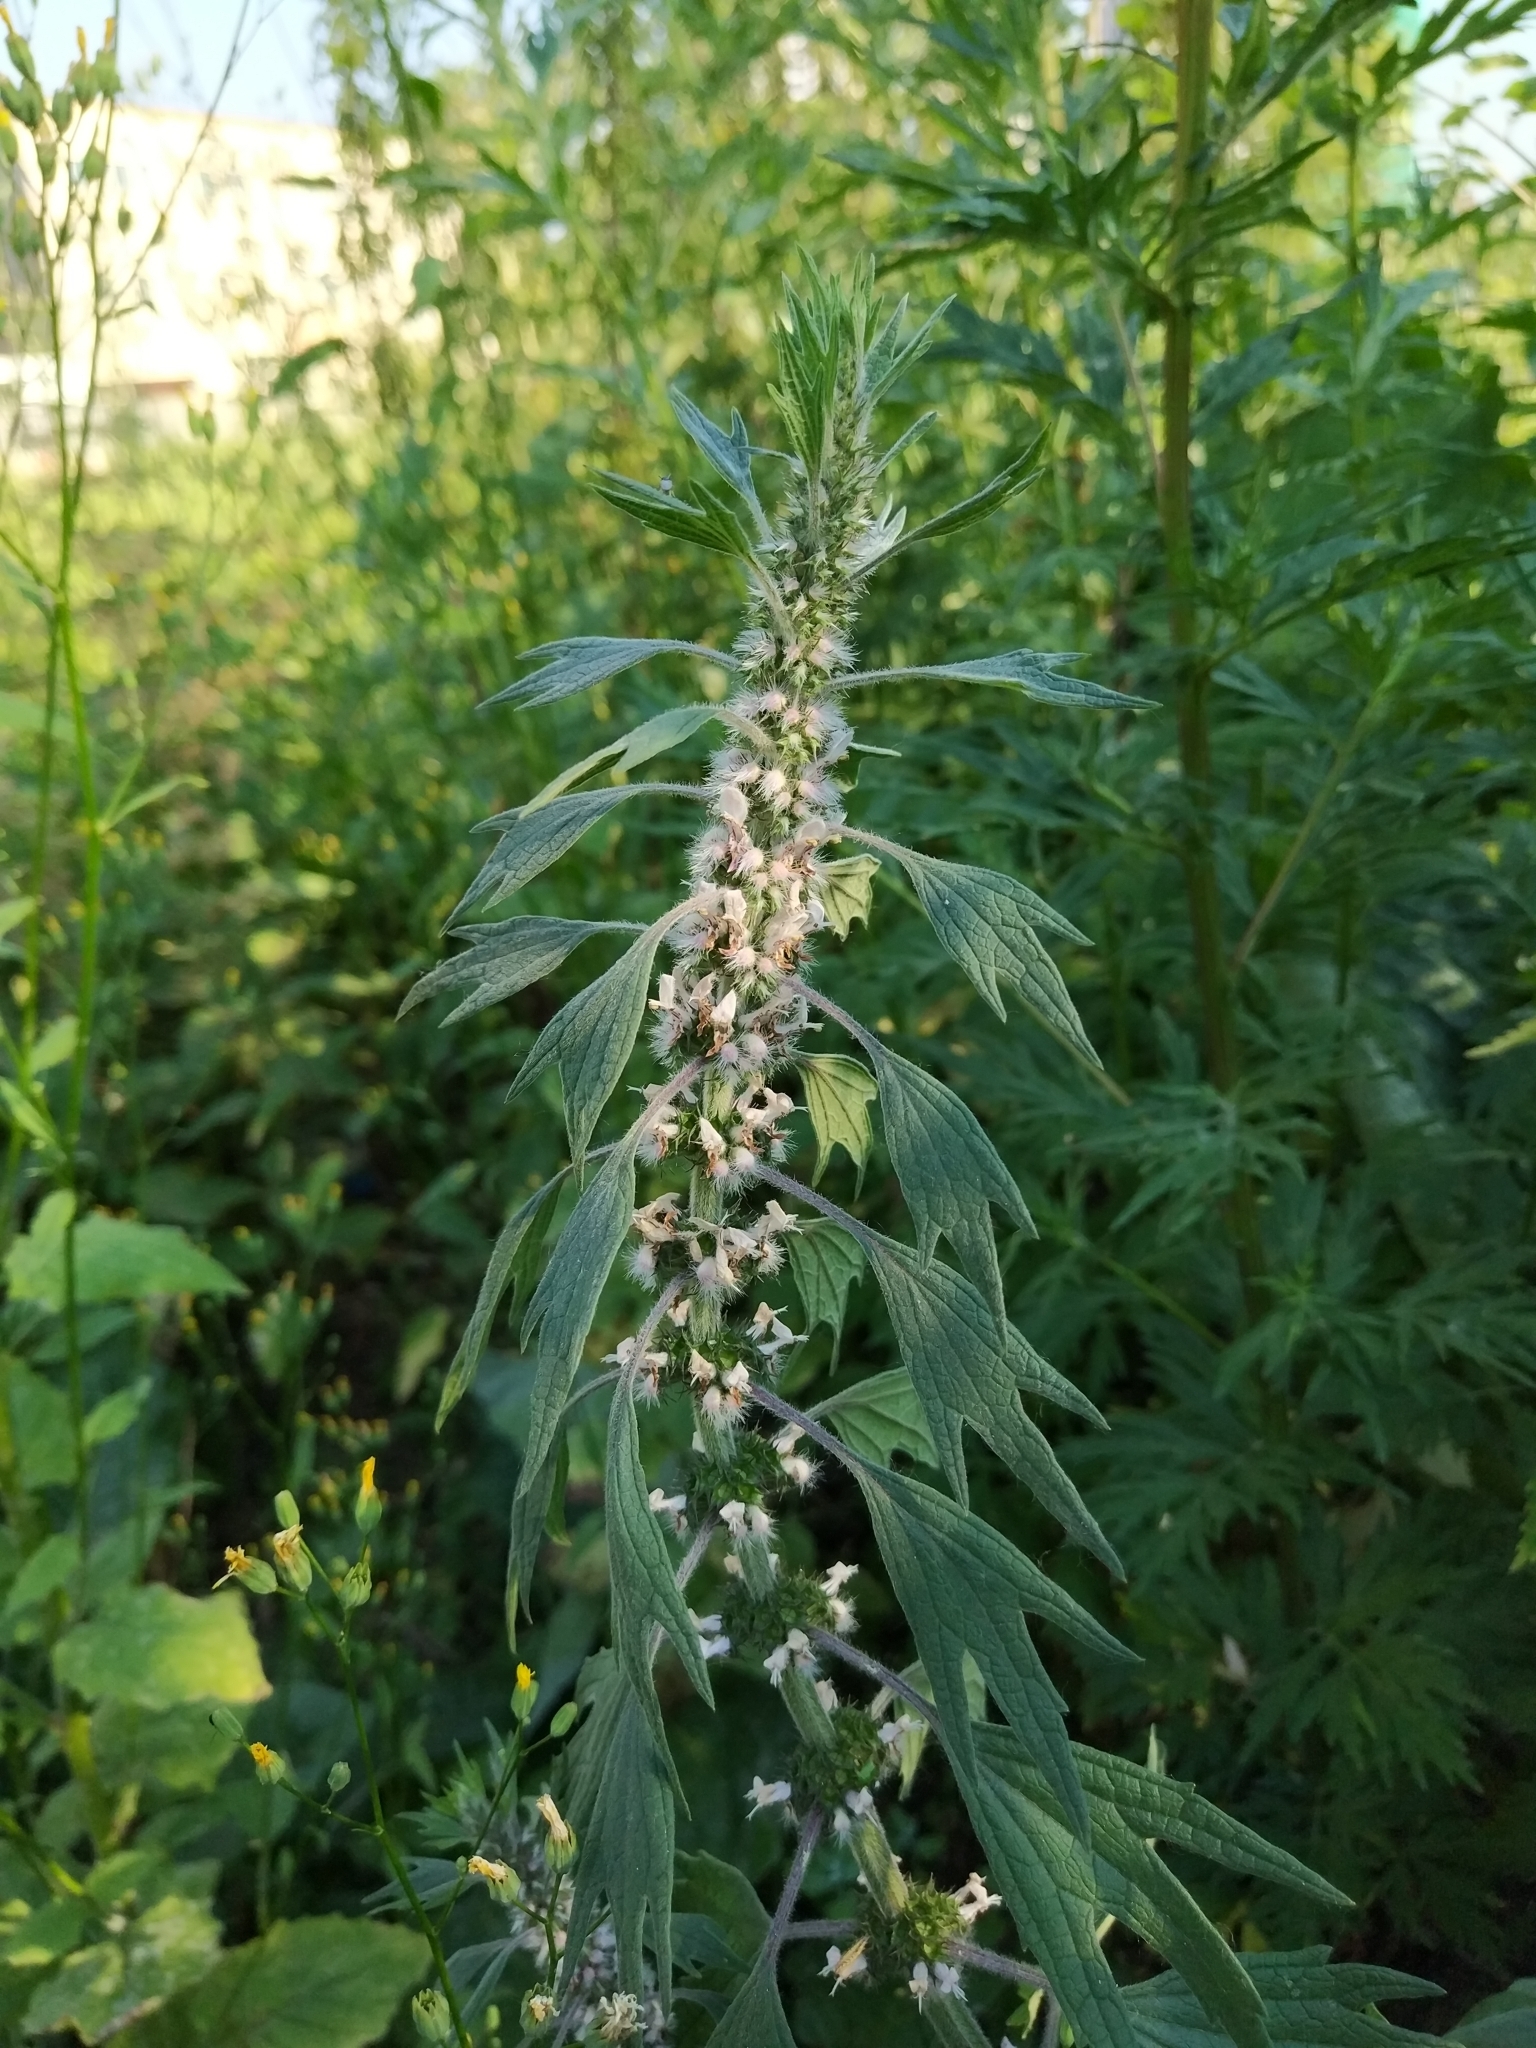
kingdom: Plantae
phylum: Tracheophyta
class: Magnoliopsida
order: Lamiales
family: Lamiaceae
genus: Leonurus
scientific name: Leonurus quinquelobatus
